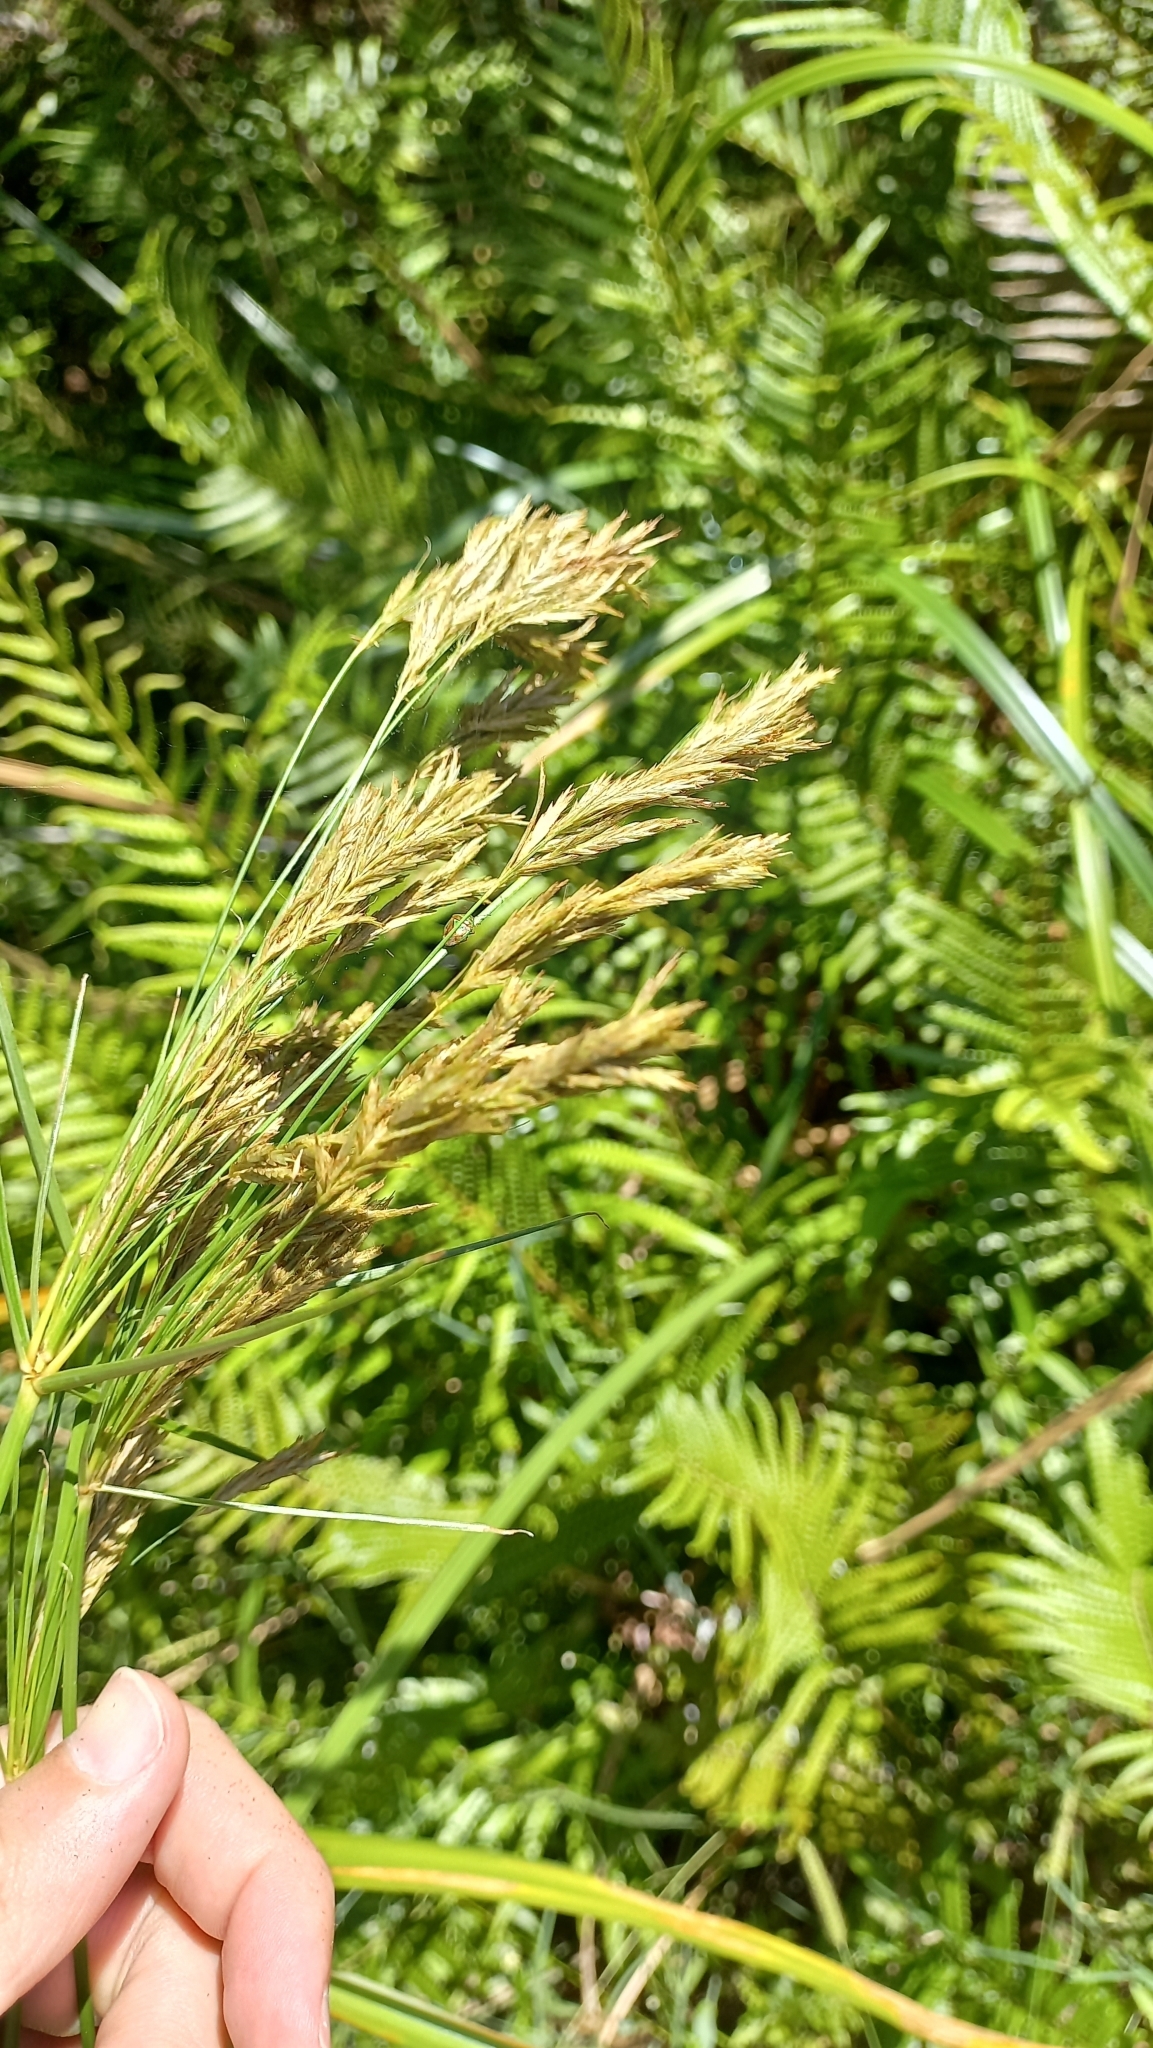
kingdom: Plantae
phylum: Tracheophyta
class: Liliopsida
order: Poales
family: Cyperaceae
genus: Cyperus
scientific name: Cyperus prolixus
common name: Mosquito flatsedge
